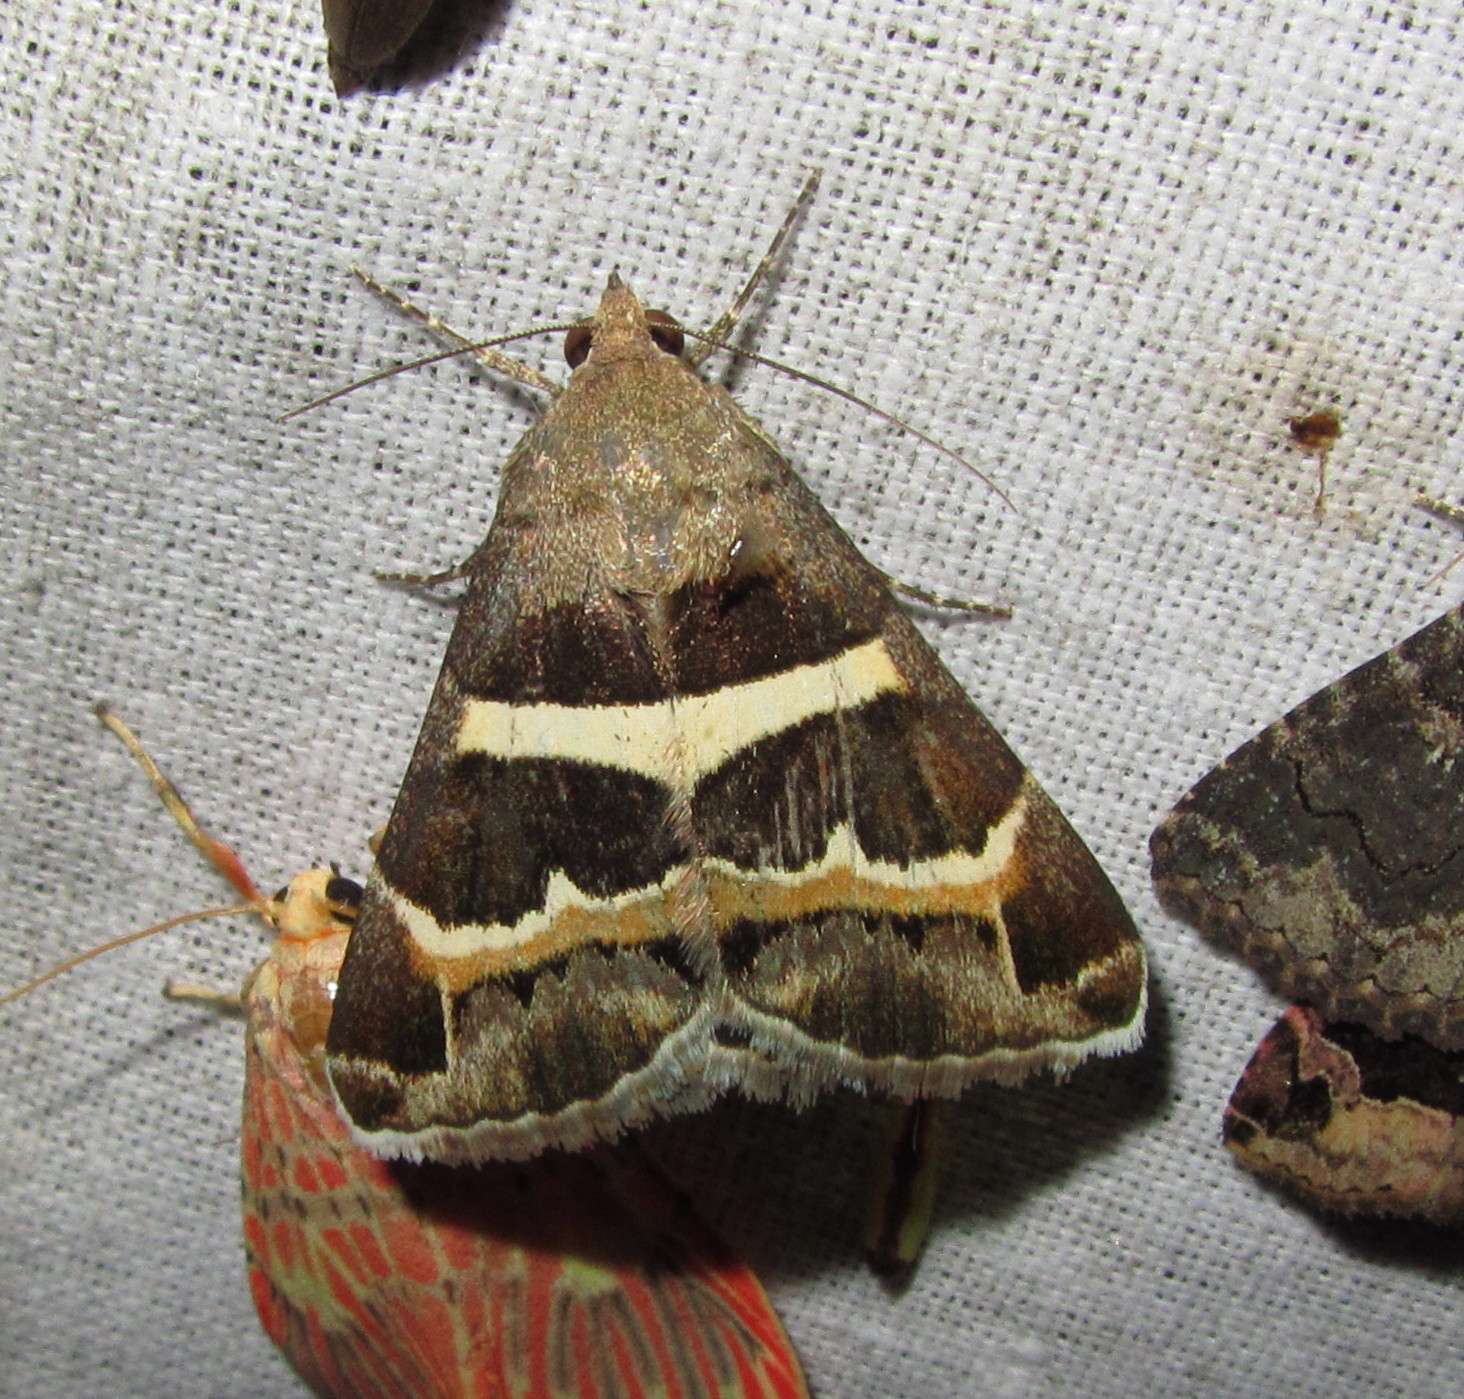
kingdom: Animalia
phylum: Arthropoda
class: Insecta
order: Lepidoptera
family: Erebidae
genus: Grammodes
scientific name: Grammodes stolida
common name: Geometrician
